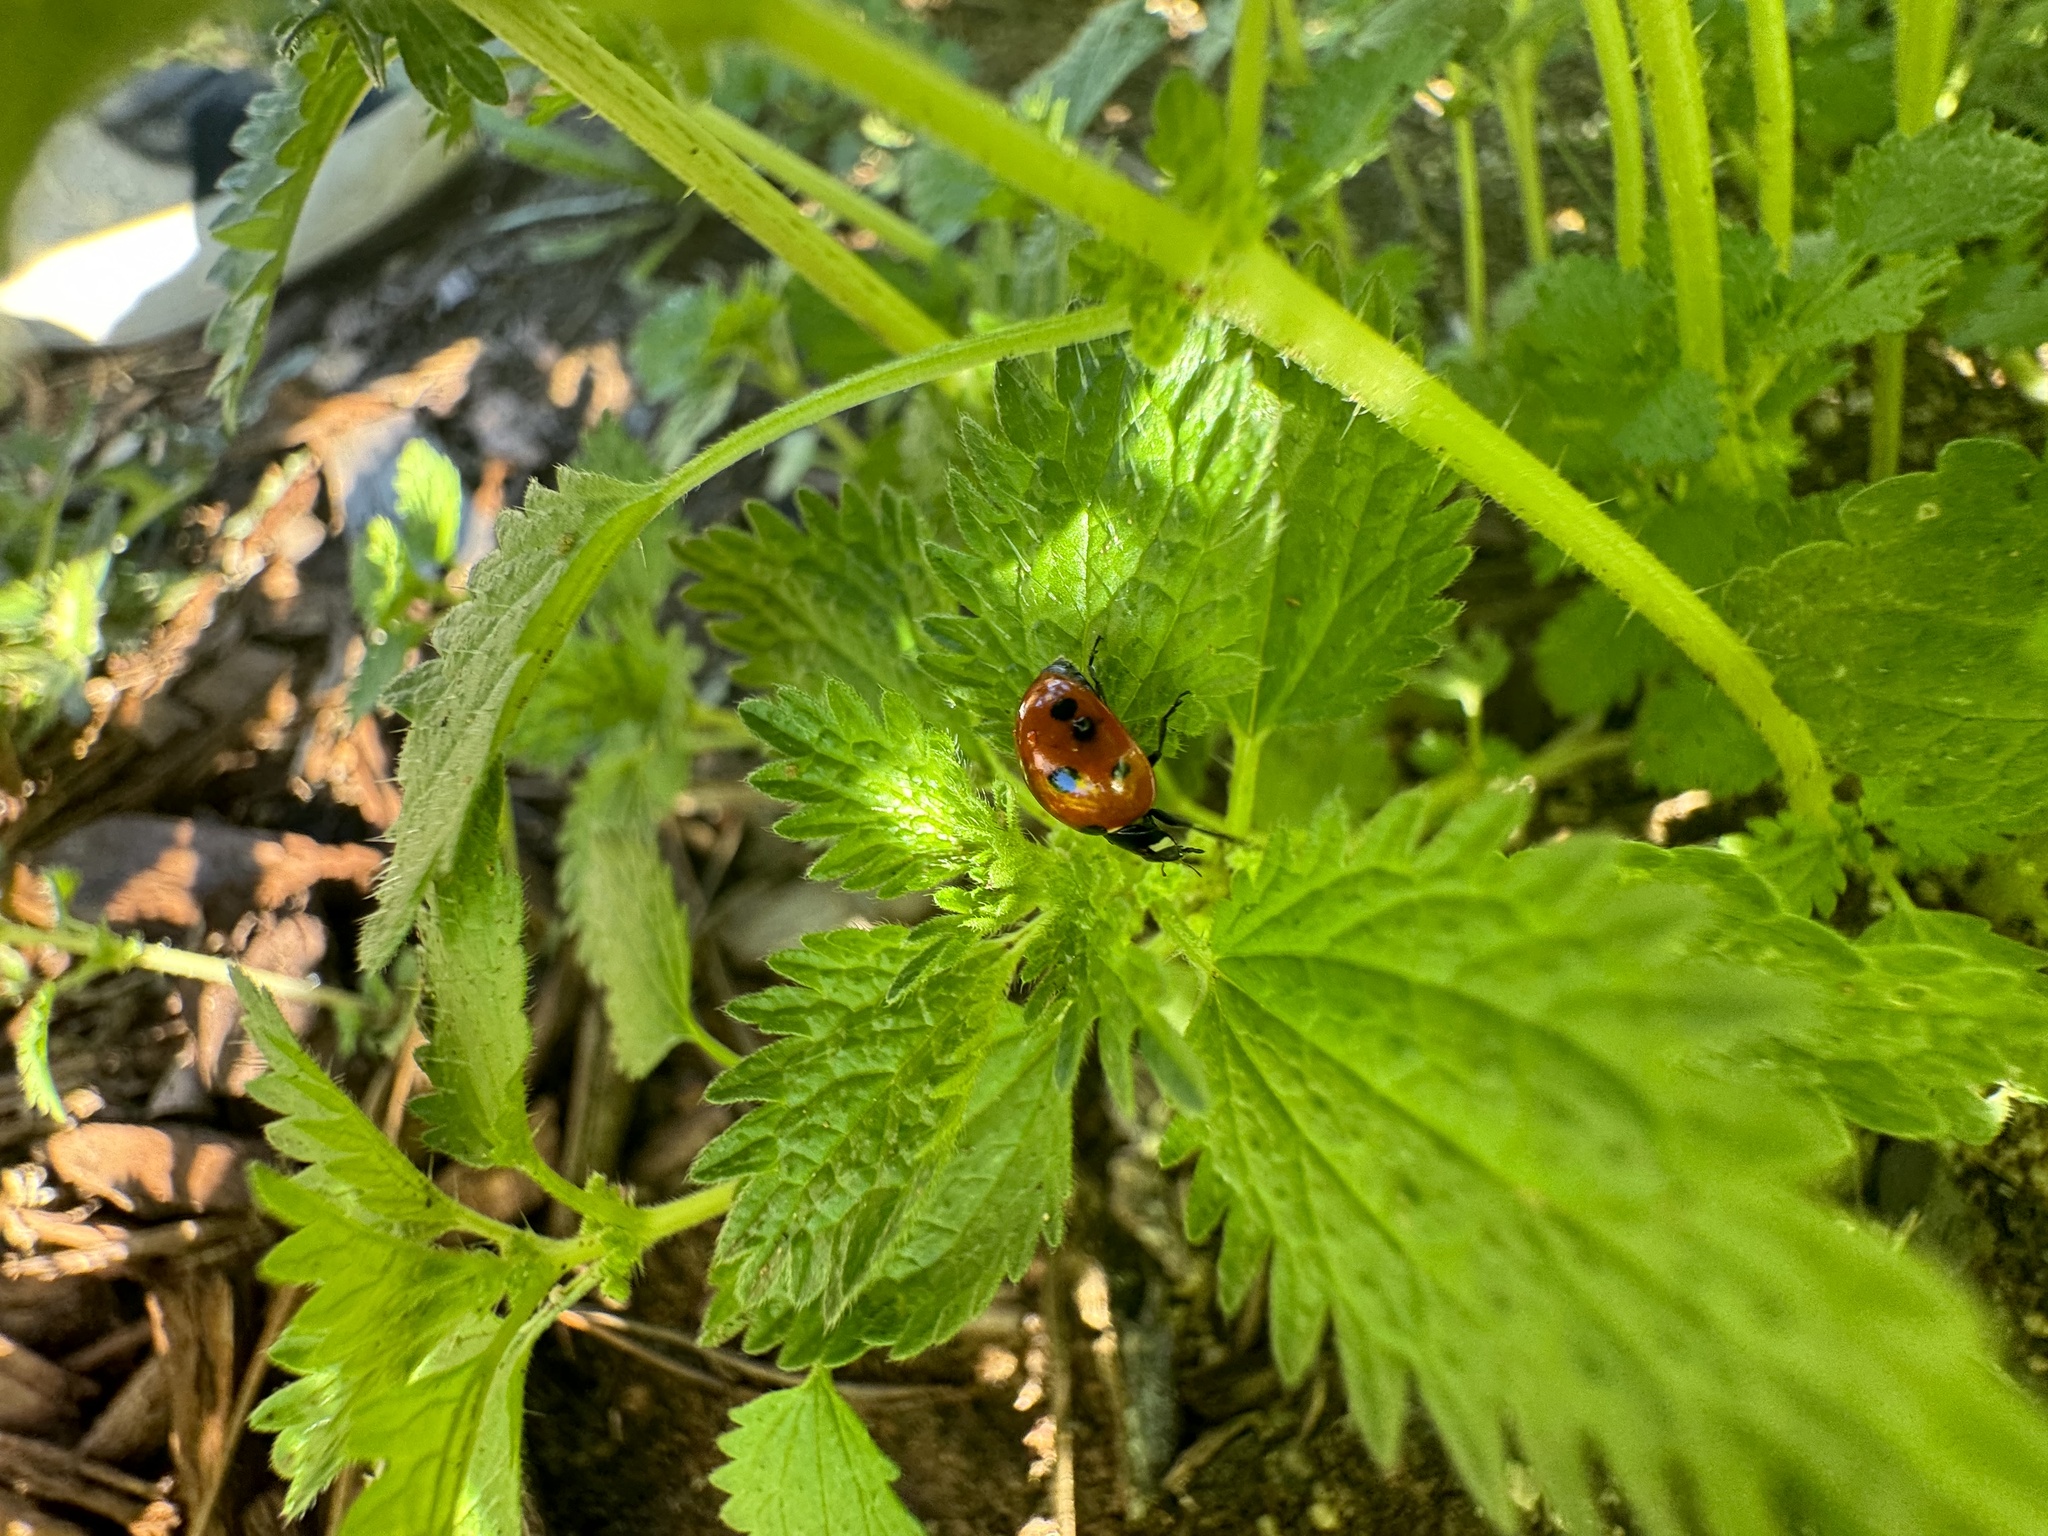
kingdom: Animalia
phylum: Arthropoda
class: Insecta
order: Coleoptera
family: Coccinellidae
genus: Coccinella
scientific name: Coccinella septempunctata
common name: Sevenspotted lady beetle
